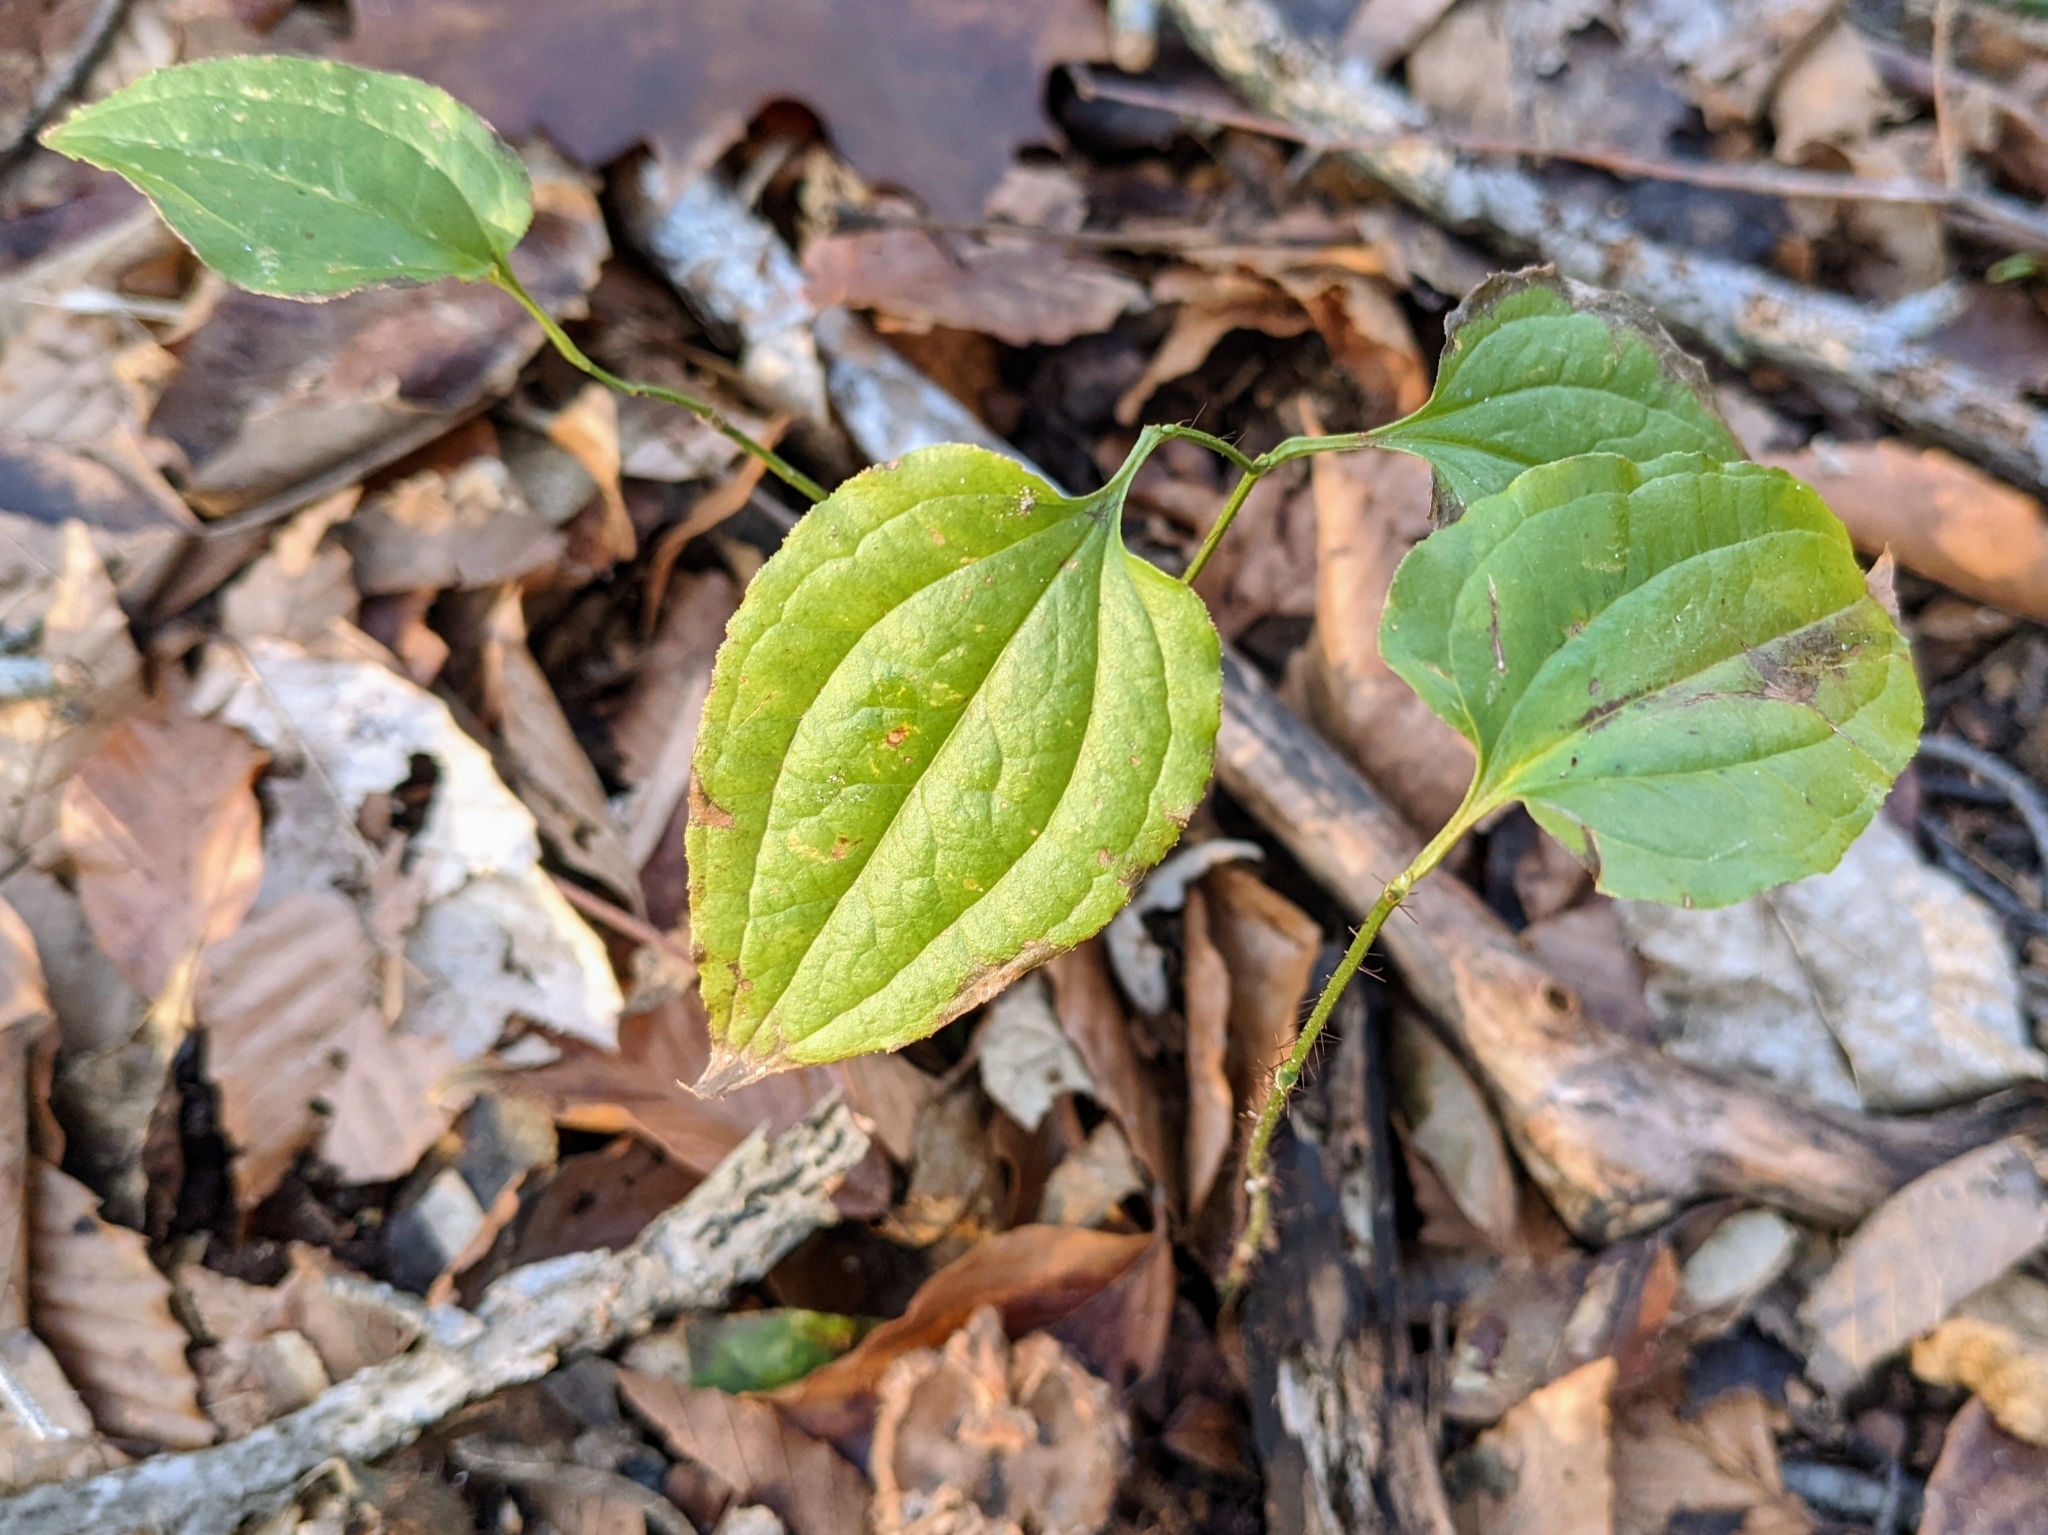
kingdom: Plantae
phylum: Tracheophyta
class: Liliopsida
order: Liliales
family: Smilacaceae
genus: Smilax
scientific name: Smilax tamnoides
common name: Hellfetter
